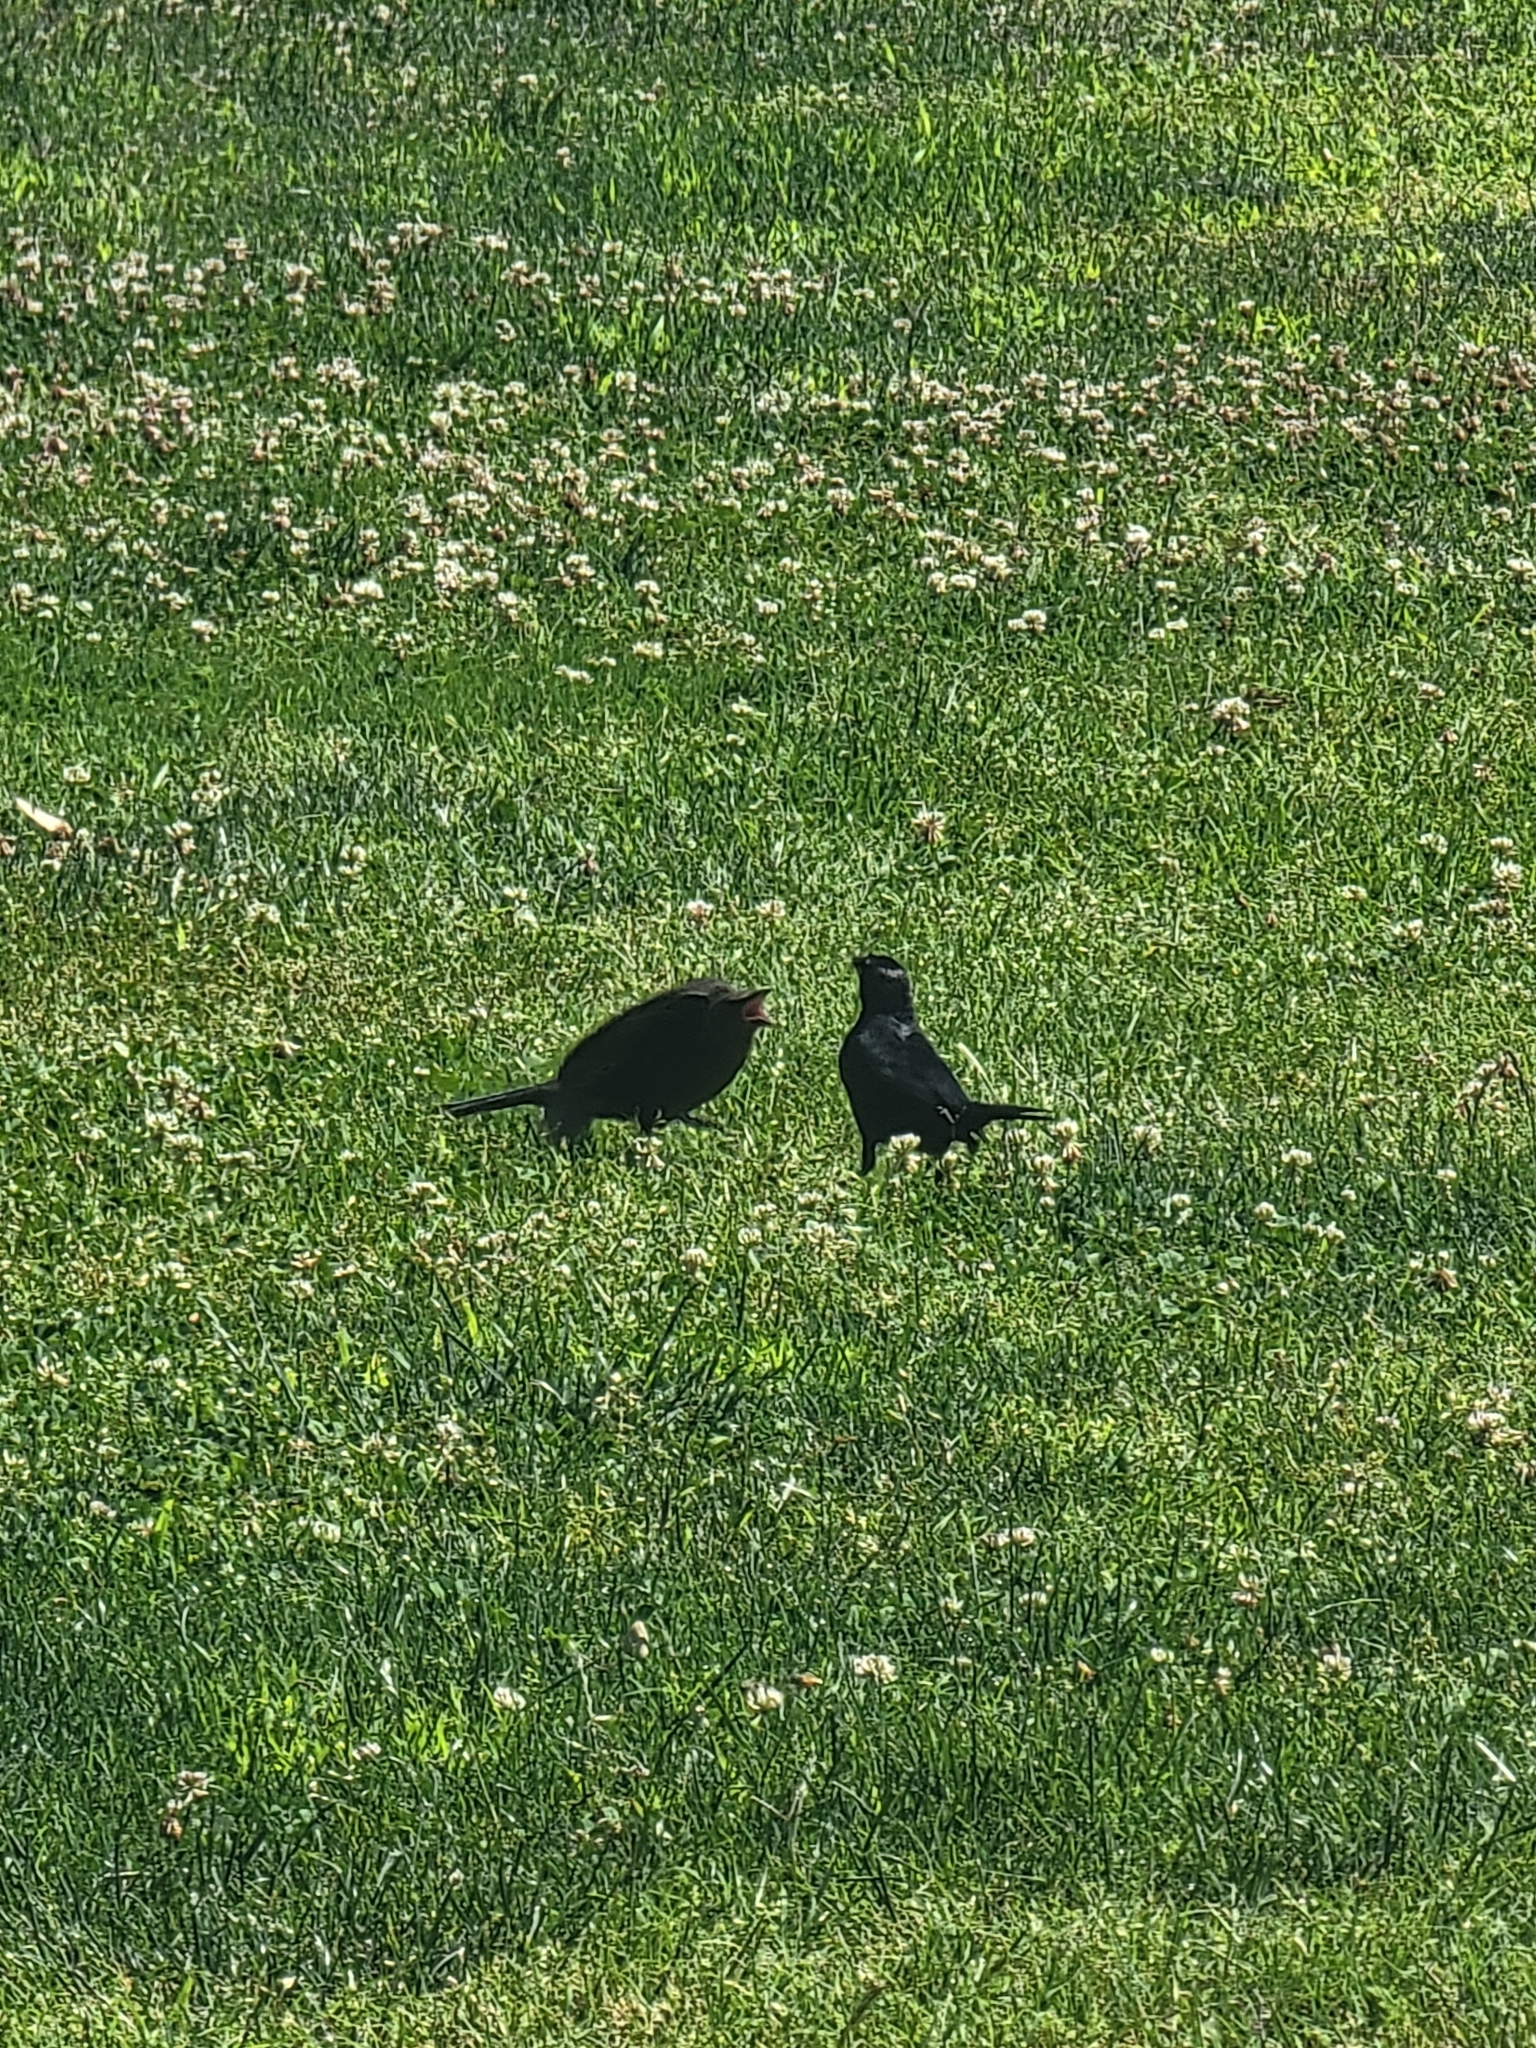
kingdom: Animalia
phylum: Chordata
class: Aves
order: Passeriformes
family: Icteridae
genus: Euphagus
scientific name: Euphagus cyanocephalus
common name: Brewer's blackbird
